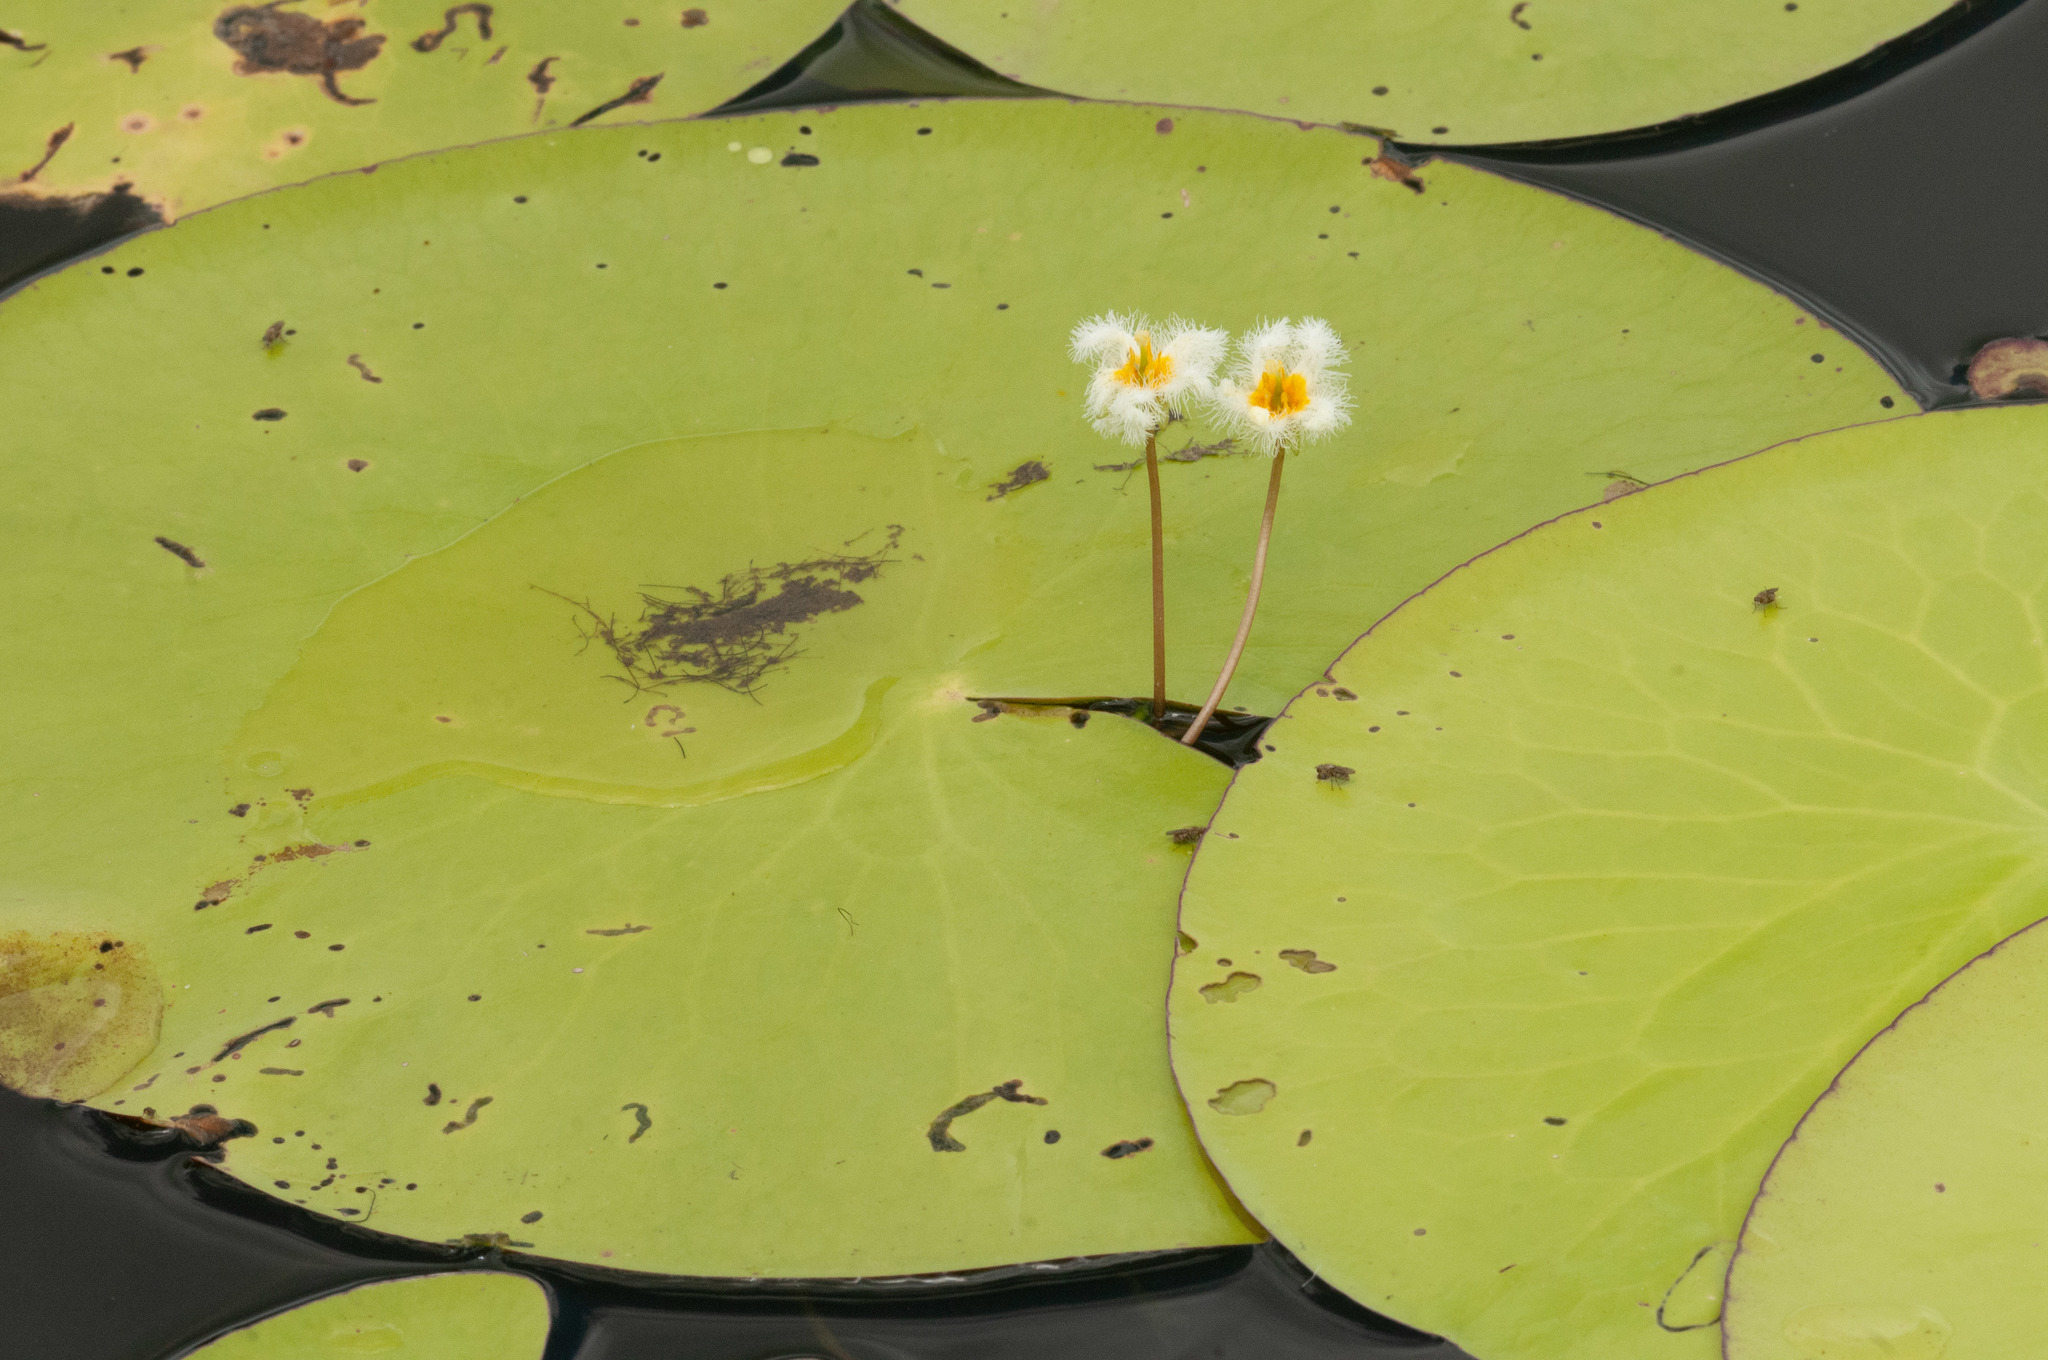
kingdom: Plantae
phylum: Tracheophyta
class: Magnoliopsida
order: Asterales
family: Menyanthaceae
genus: Nymphoides
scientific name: Nymphoides indica
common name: Water-snowflake
